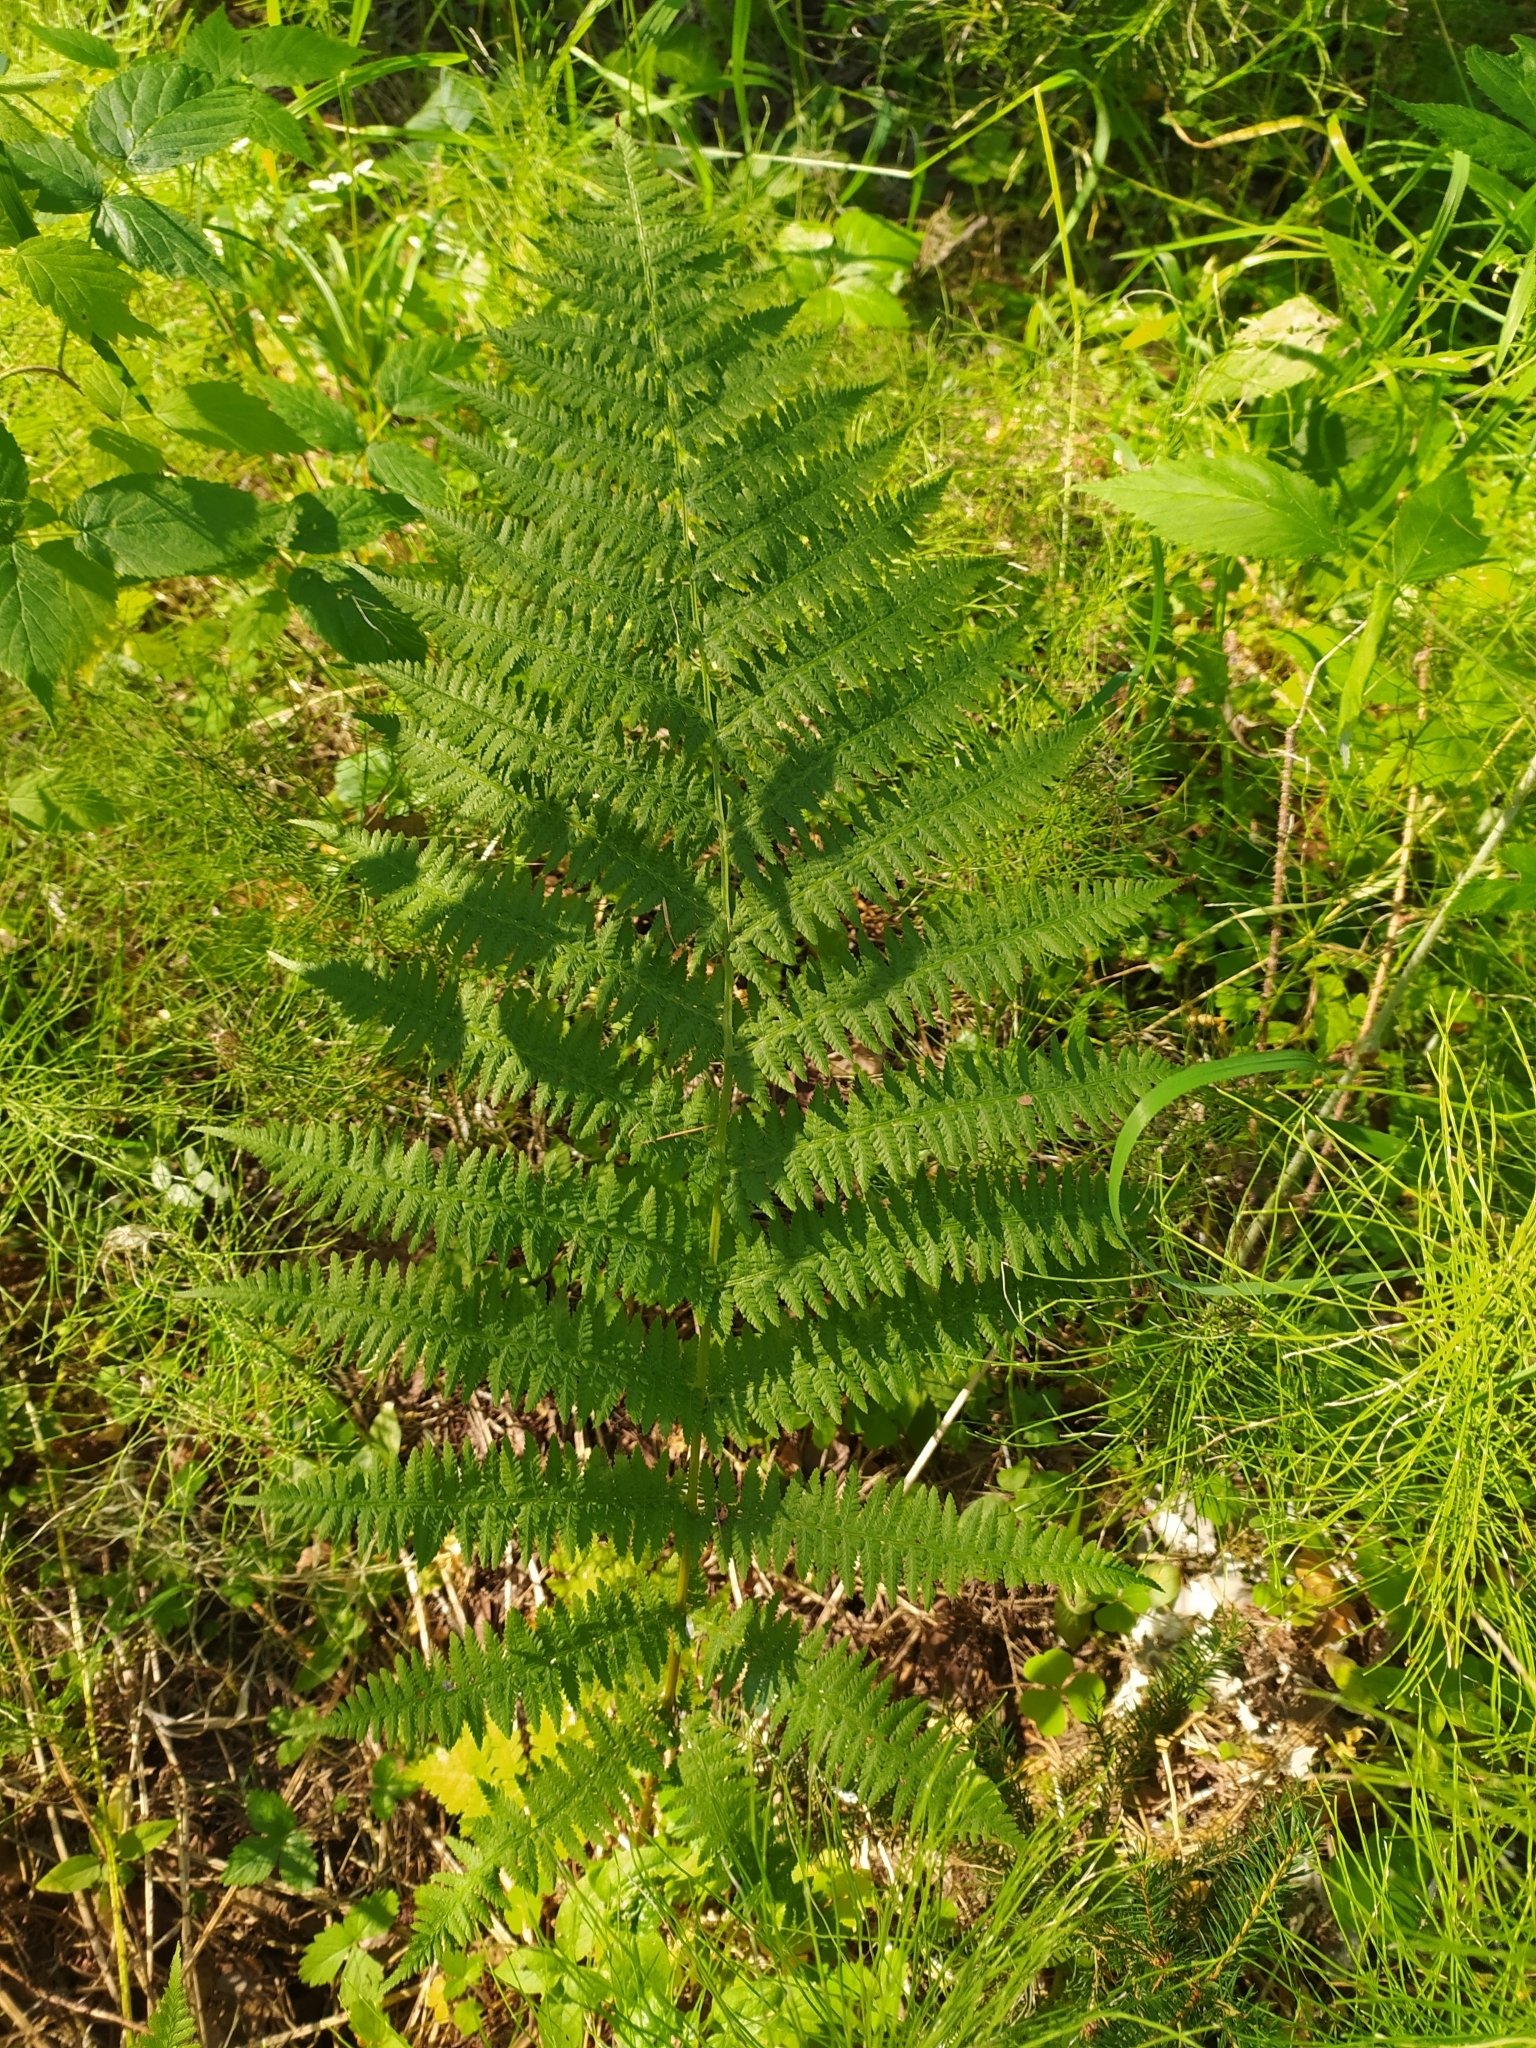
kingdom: Plantae
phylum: Tracheophyta
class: Polypodiopsida
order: Polypodiales
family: Athyriaceae
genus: Athyrium
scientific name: Athyrium filix-femina
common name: Lady fern
